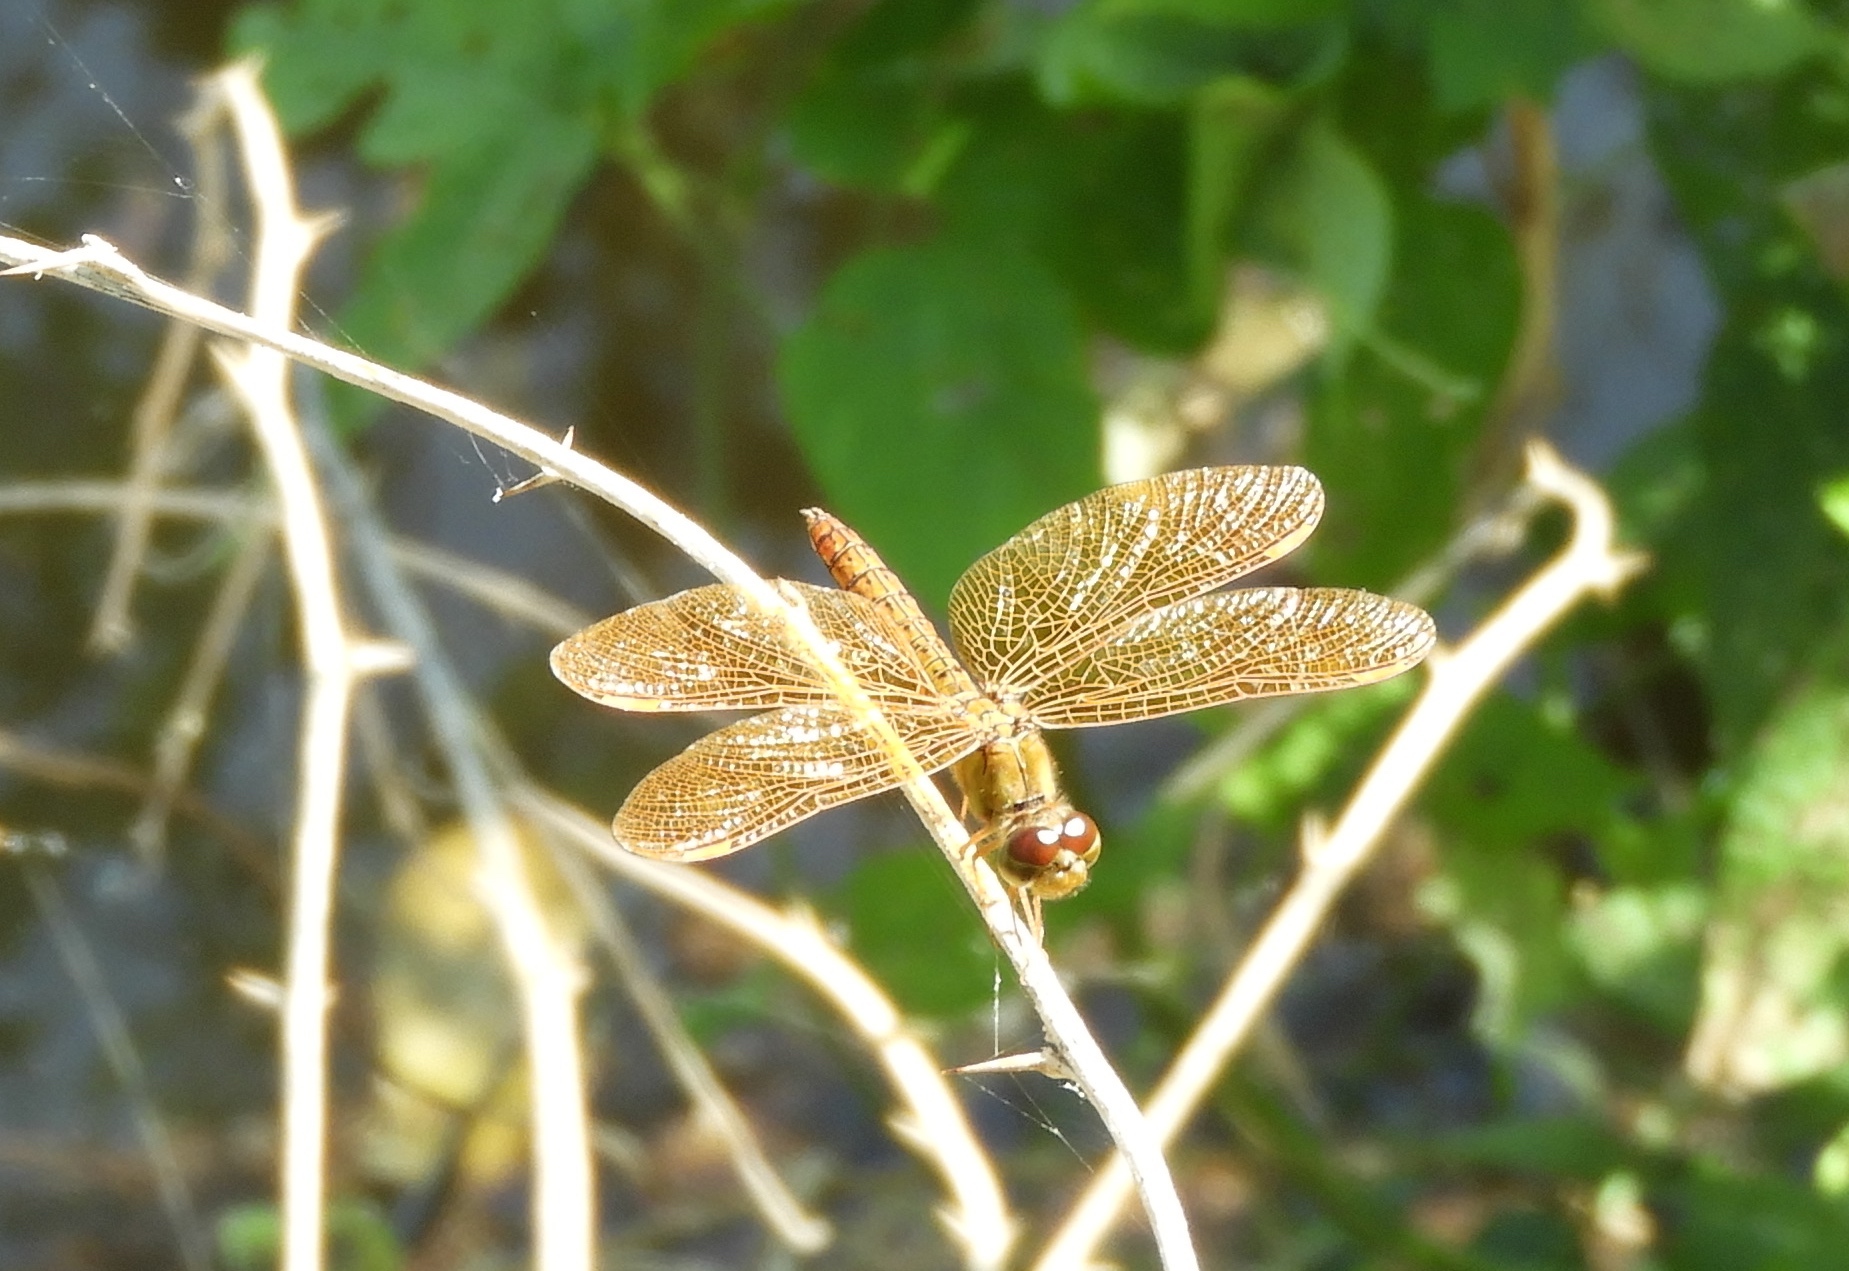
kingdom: Animalia
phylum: Arthropoda
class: Insecta
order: Odonata
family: Libellulidae
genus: Perithemis
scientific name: Perithemis intensa
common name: Mexican amberwing
